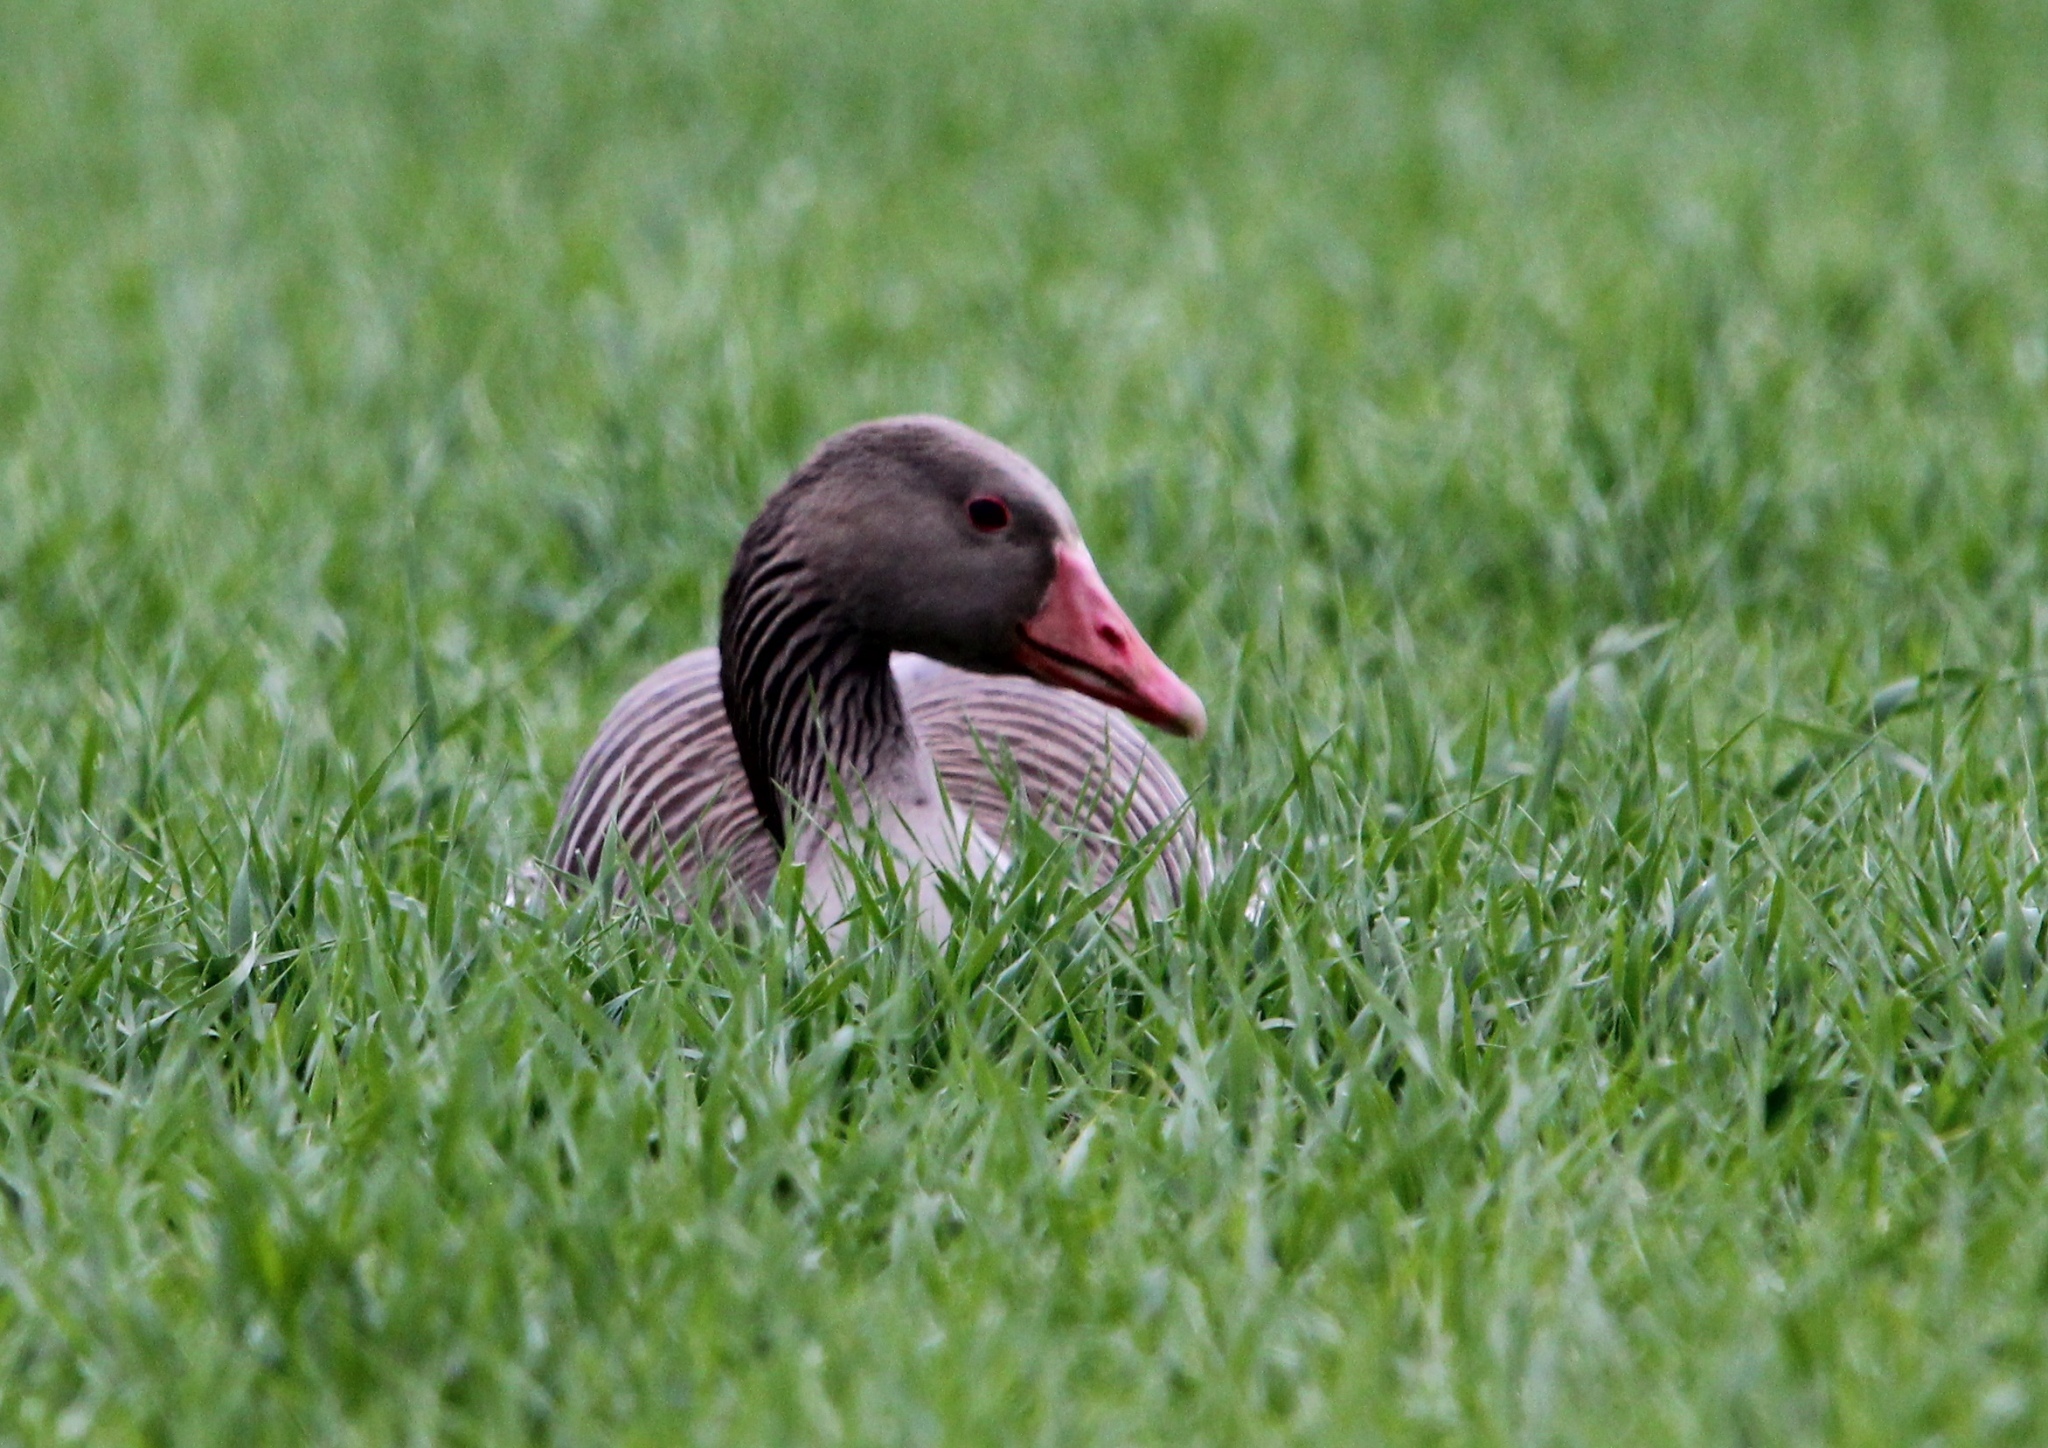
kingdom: Animalia
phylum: Chordata
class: Aves
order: Anseriformes
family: Anatidae
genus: Anser
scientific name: Anser anser
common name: Greylag goose
